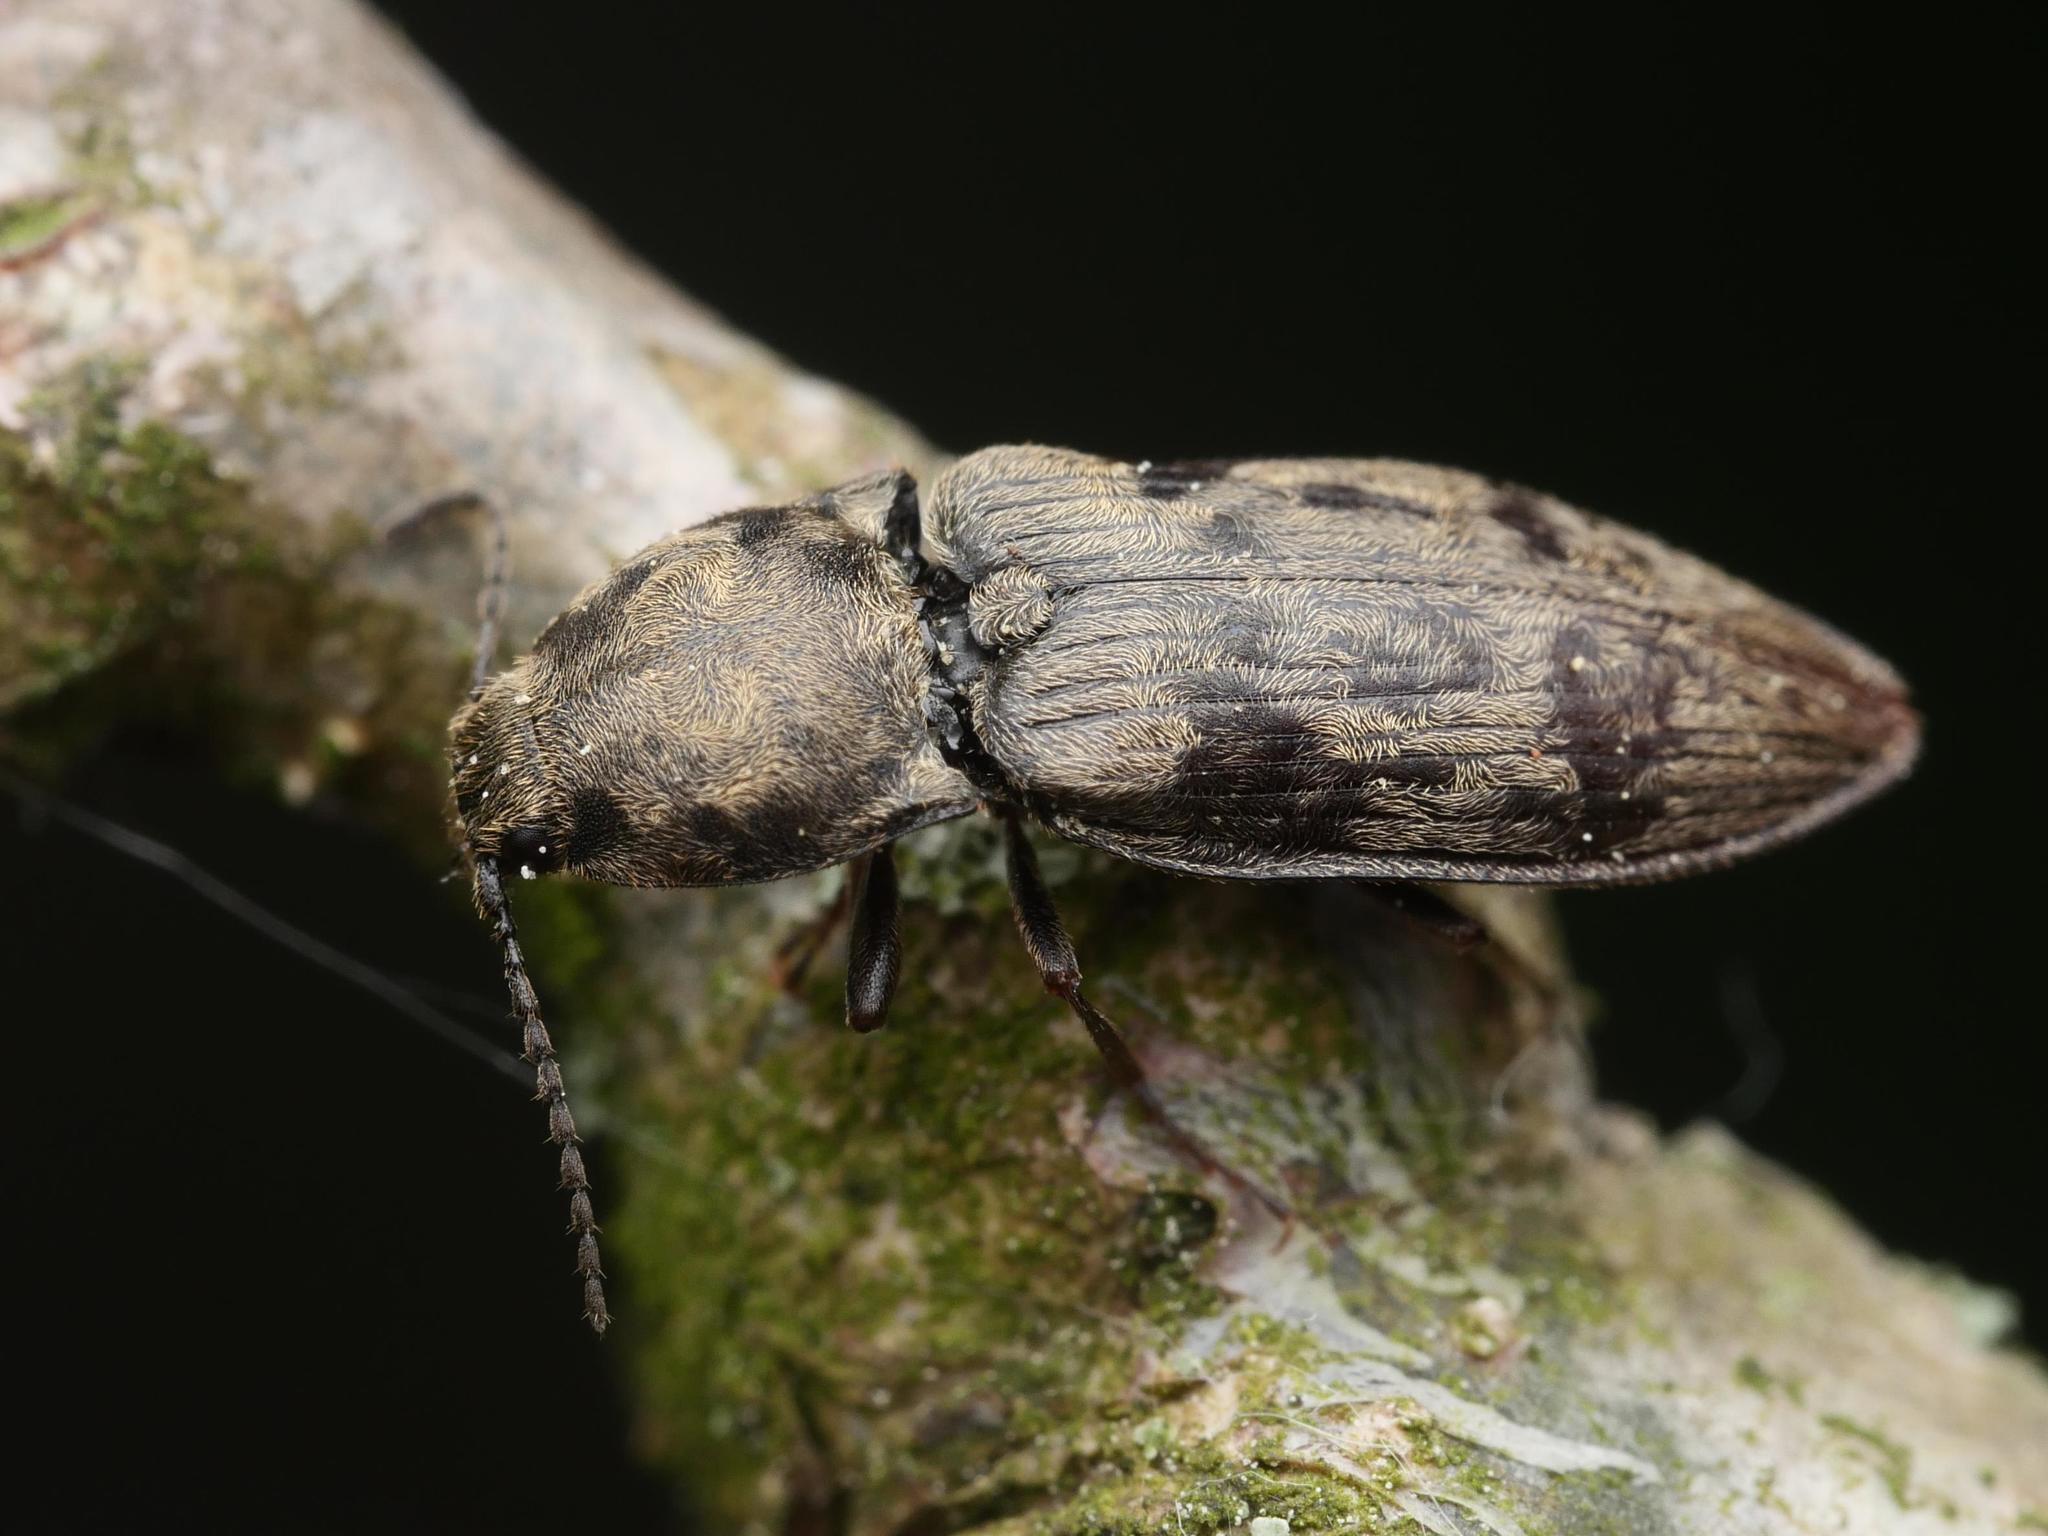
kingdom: Animalia
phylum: Arthropoda
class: Insecta
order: Coleoptera
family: Elateridae
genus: Prosternon
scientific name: Prosternon tessellatum
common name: Chequered click beetle
